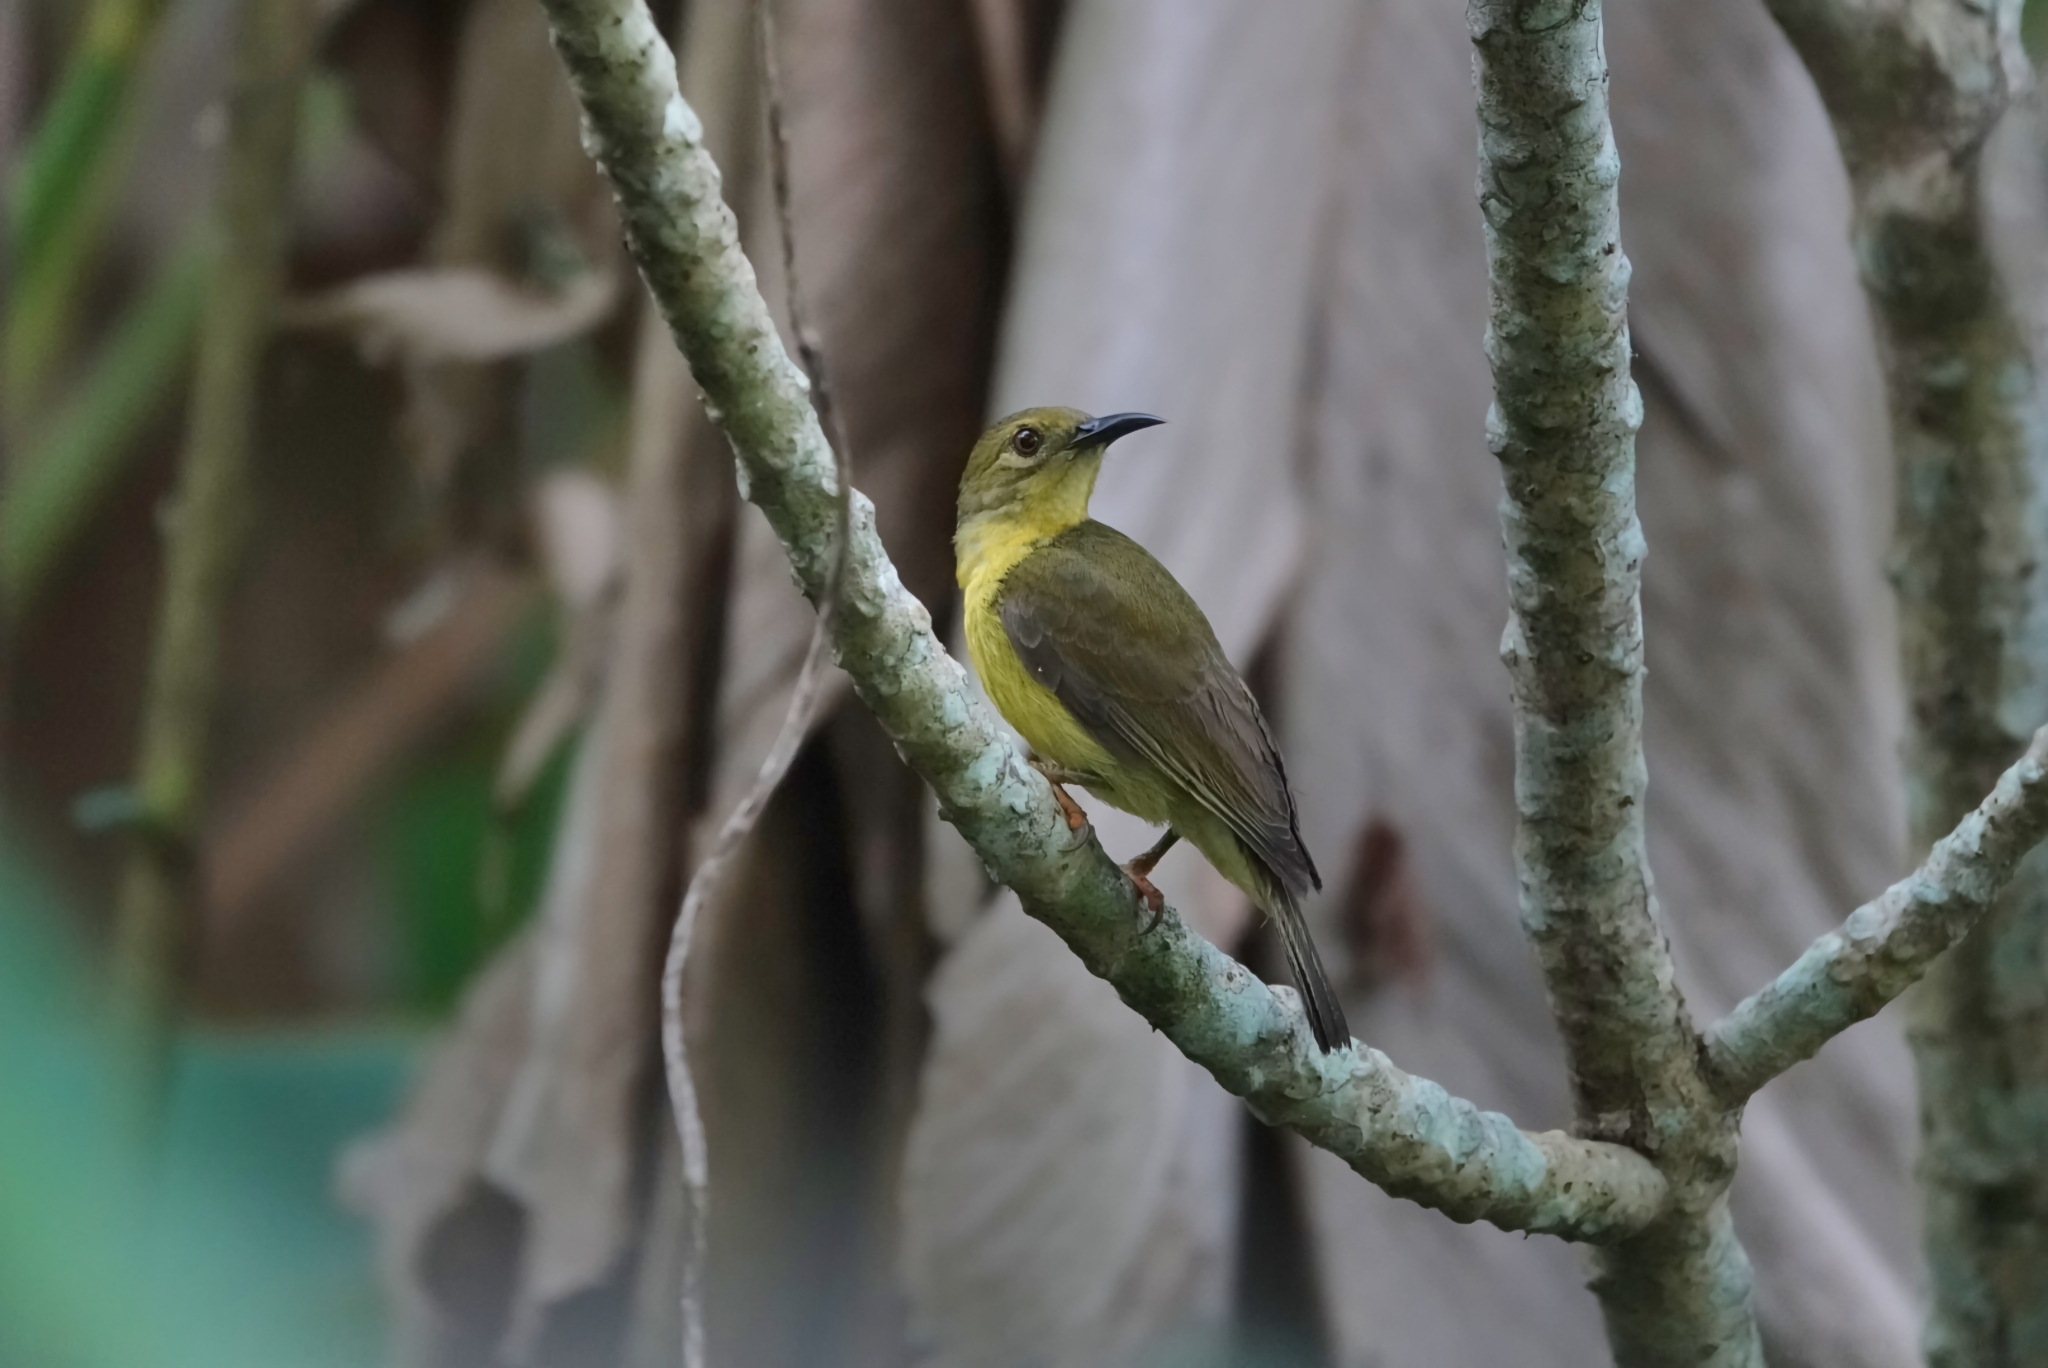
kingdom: Animalia
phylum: Chordata
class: Aves
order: Passeriformes
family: Nectariniidae
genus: Anthreptes
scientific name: Anthreptes malacensis
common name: Brown-throated sunbird
